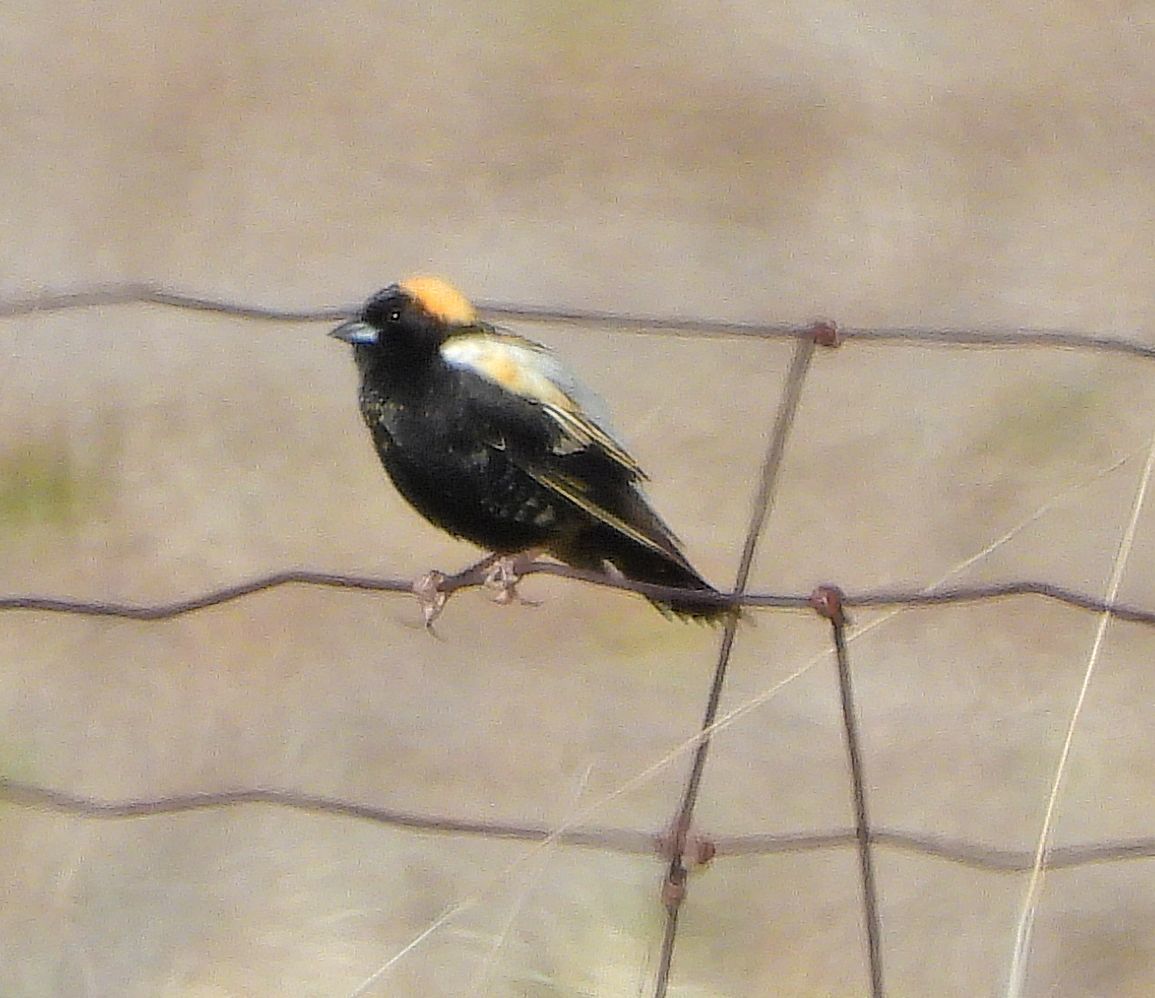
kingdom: Animalia
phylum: Chordata
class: Aves
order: Passeriformes
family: Icteridae
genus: Dolichonyx
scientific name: Dolichonyx oryzivorus
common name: Bobolink
